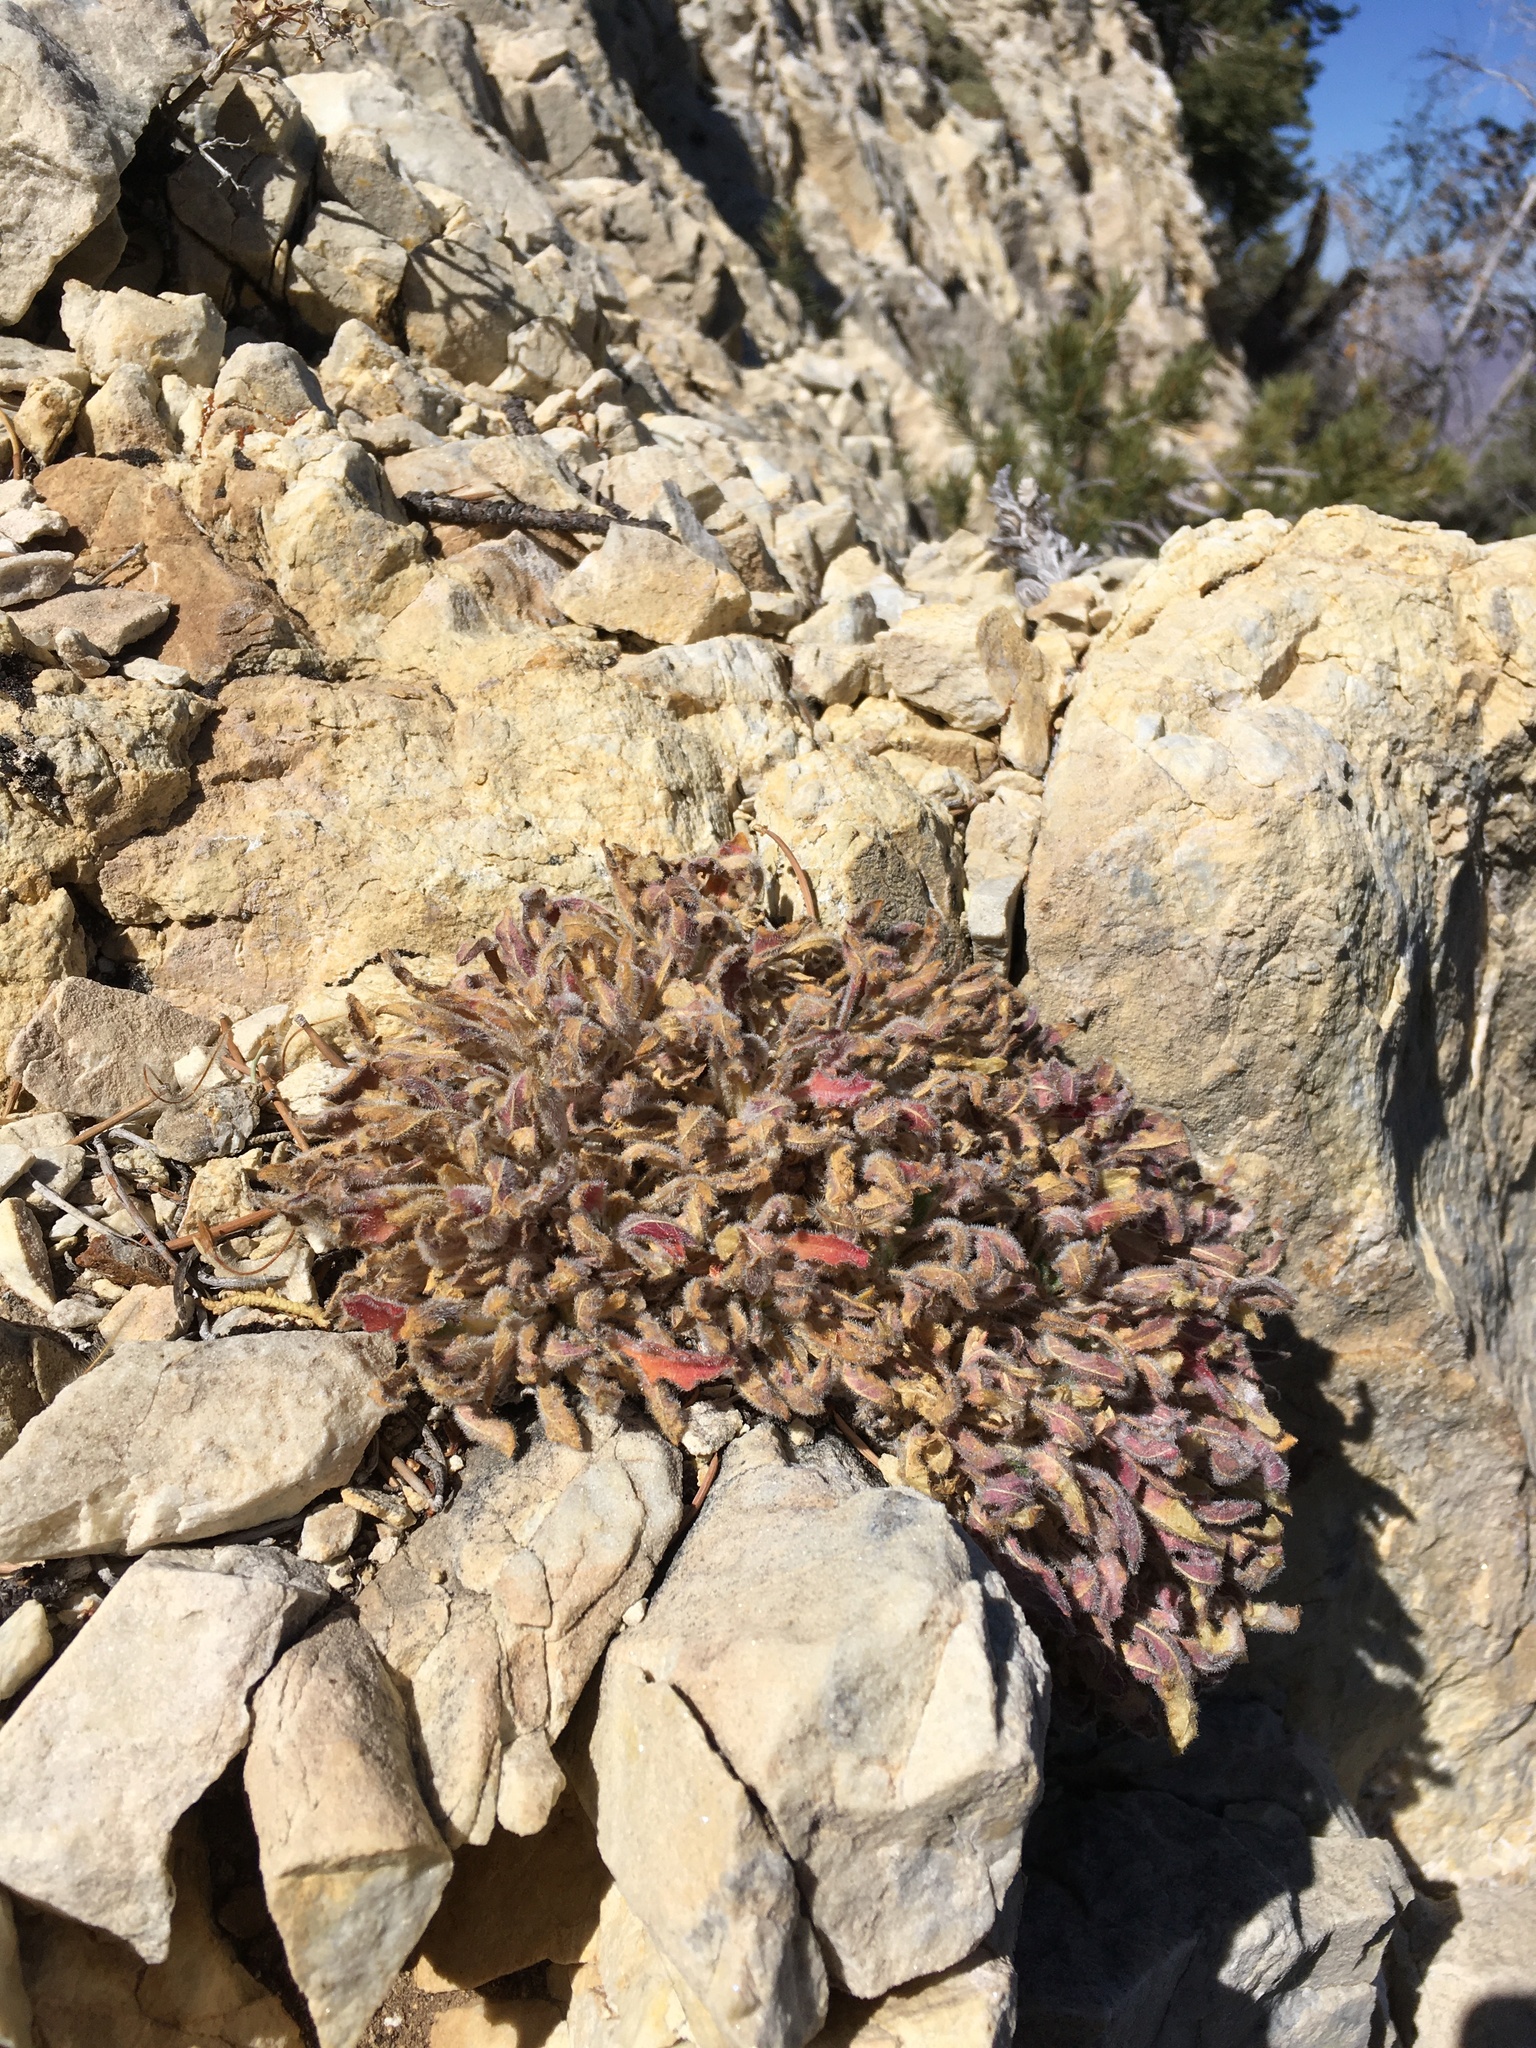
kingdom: Plantae
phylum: Tracheophyta
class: Magnoliopsida
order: Myrtales
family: Onagraceae
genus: Oenothera
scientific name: Oenothera cespitosa
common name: Tufted evening-primrose
